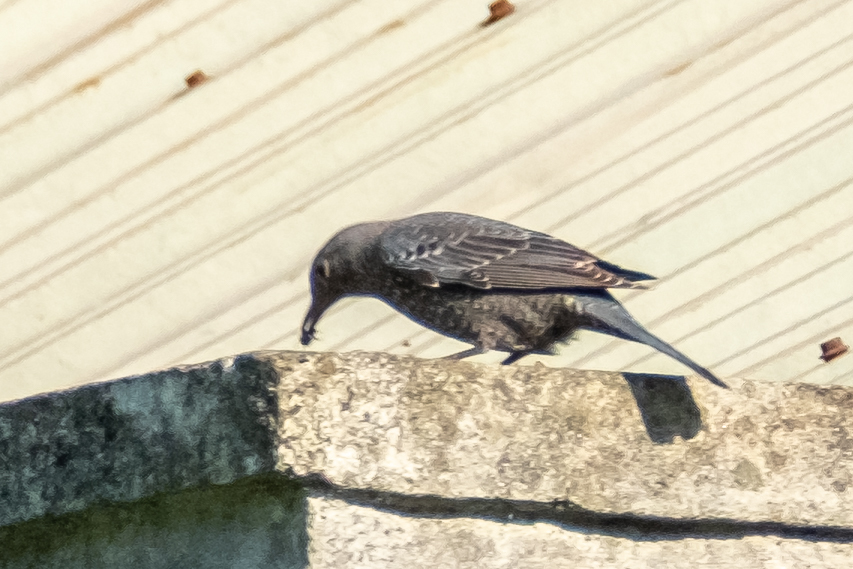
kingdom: Animalia
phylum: Chordata
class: Aves
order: Passeriformes
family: Muscicapidae
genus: Monticola
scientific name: Monticola solitarius
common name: Blue rock thrush
